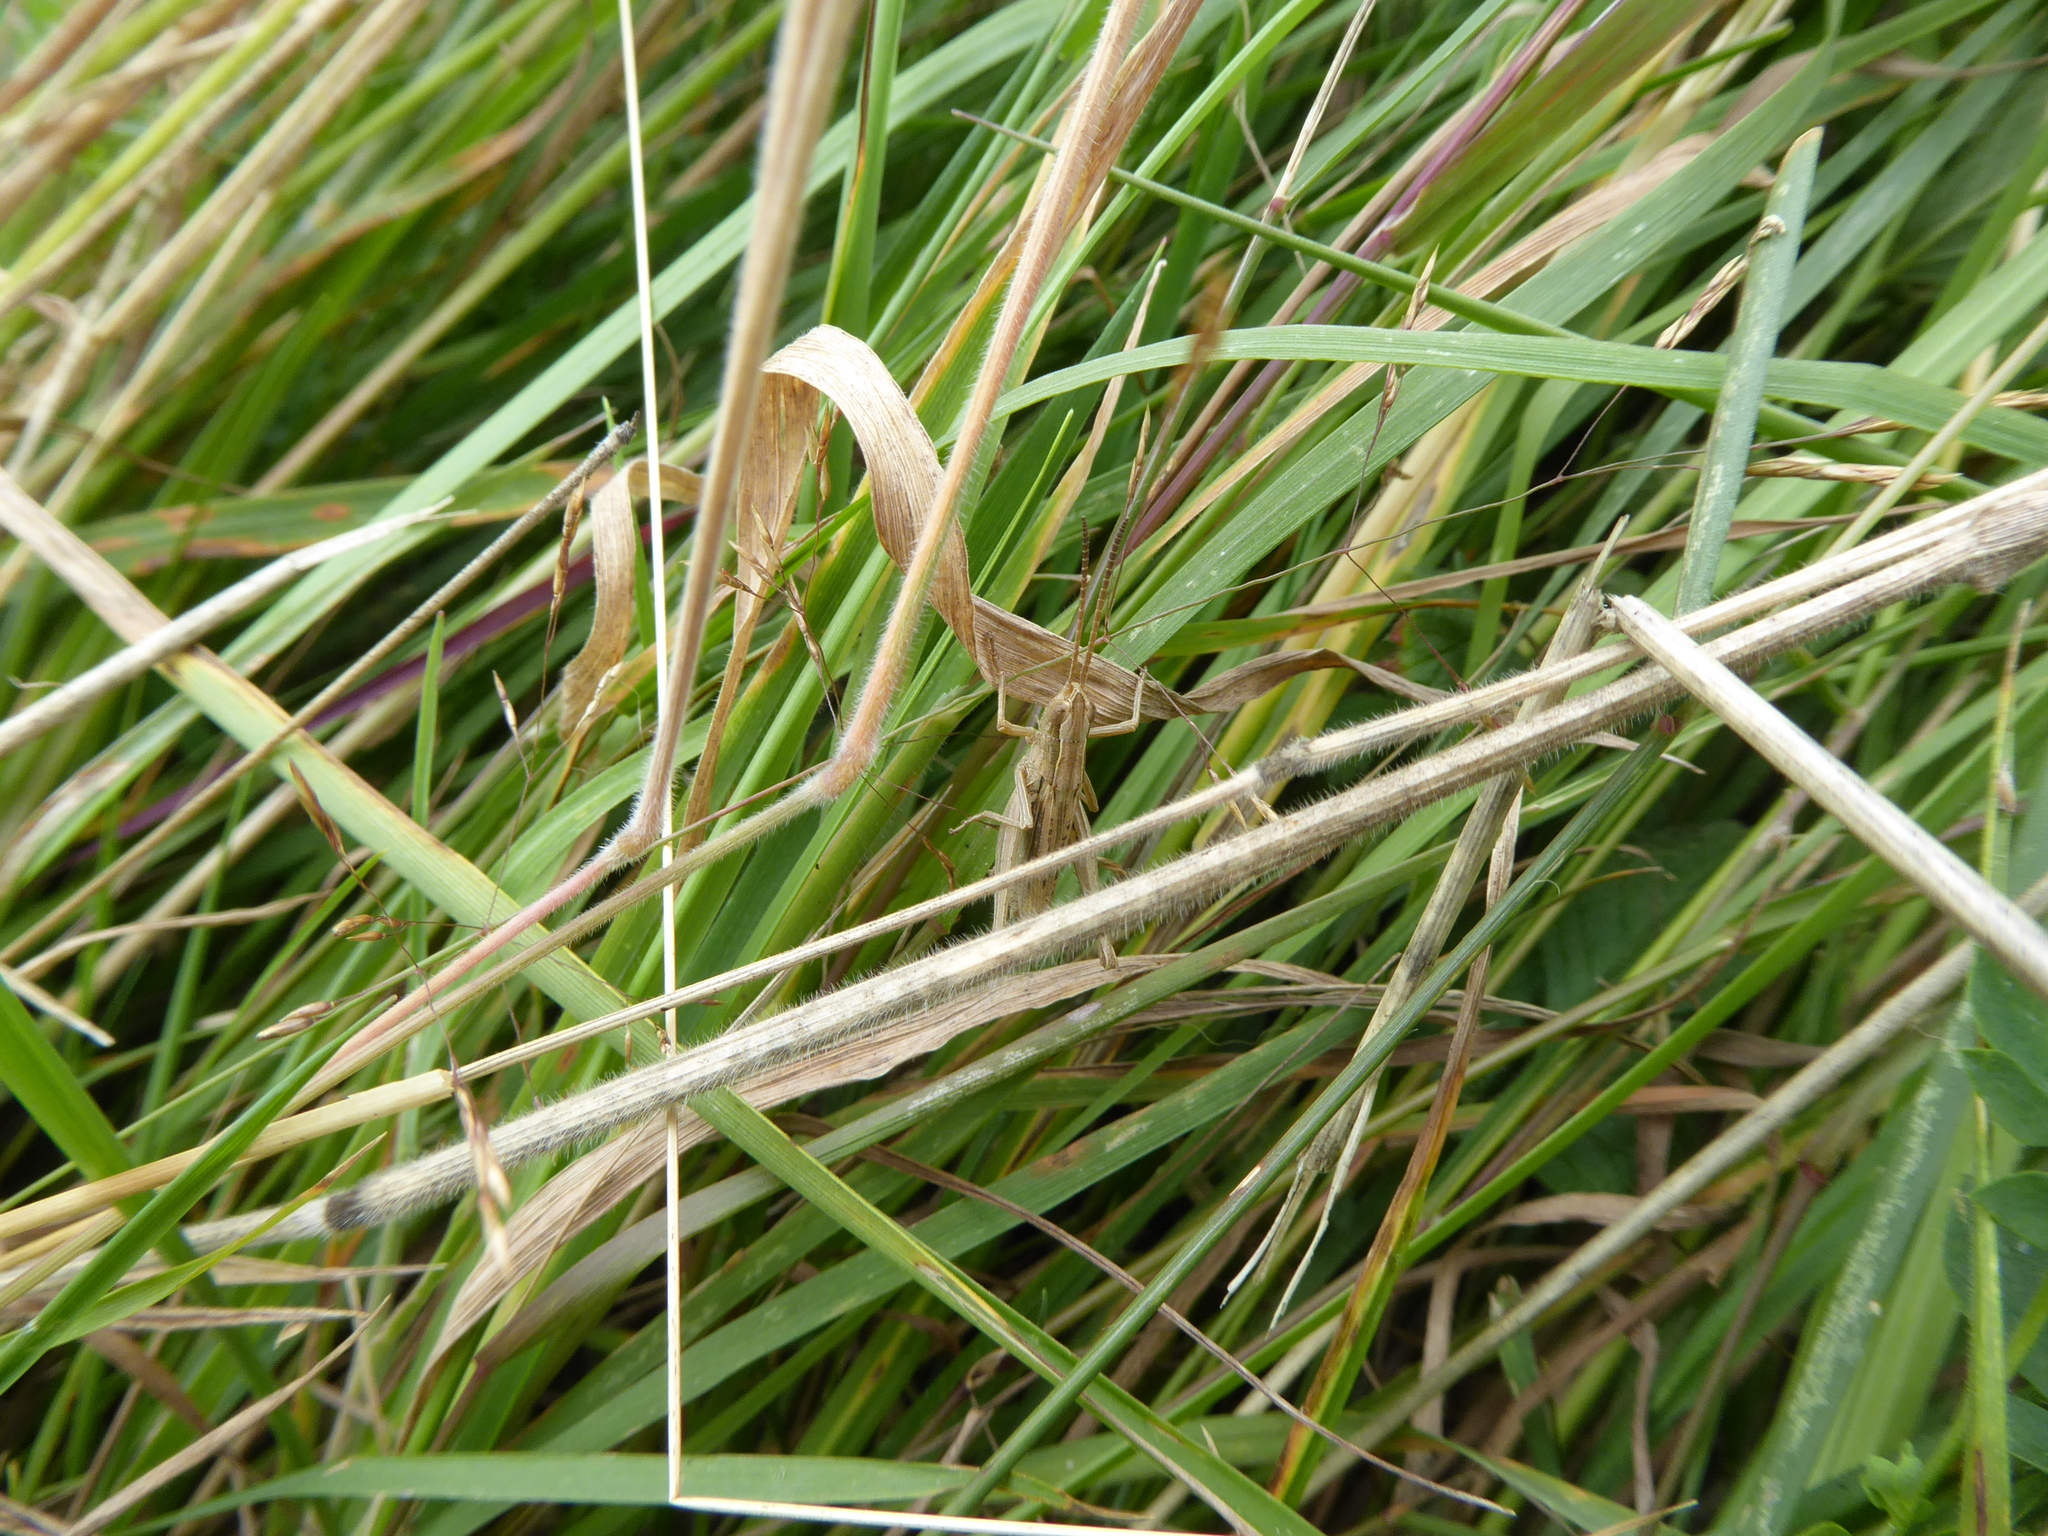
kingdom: Animalia
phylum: Arthropoda
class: Insecta
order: Orthoptera
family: Acrididae
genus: Chorthippus
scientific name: Chorthippus albomarginatus
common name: Lesser marsh grasshopper
